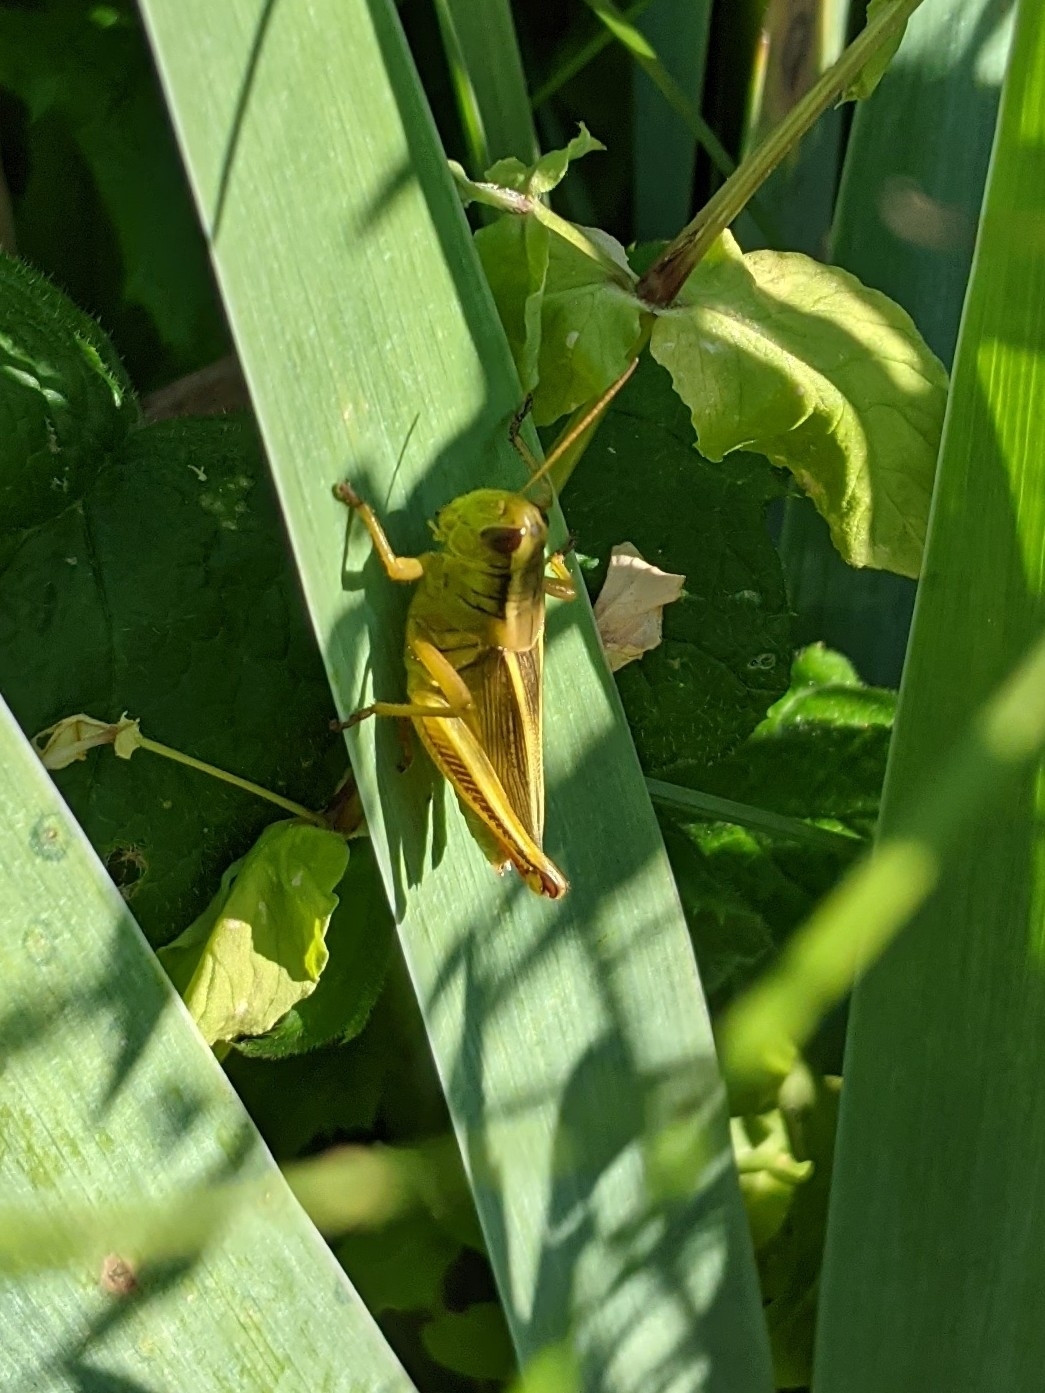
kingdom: Animalia
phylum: Arthropoda
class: Insecta
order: Orthoptera
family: Acrididae
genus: Melanoplus
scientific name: Melanoplus bivittatus
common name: Two-striped grasshopper
